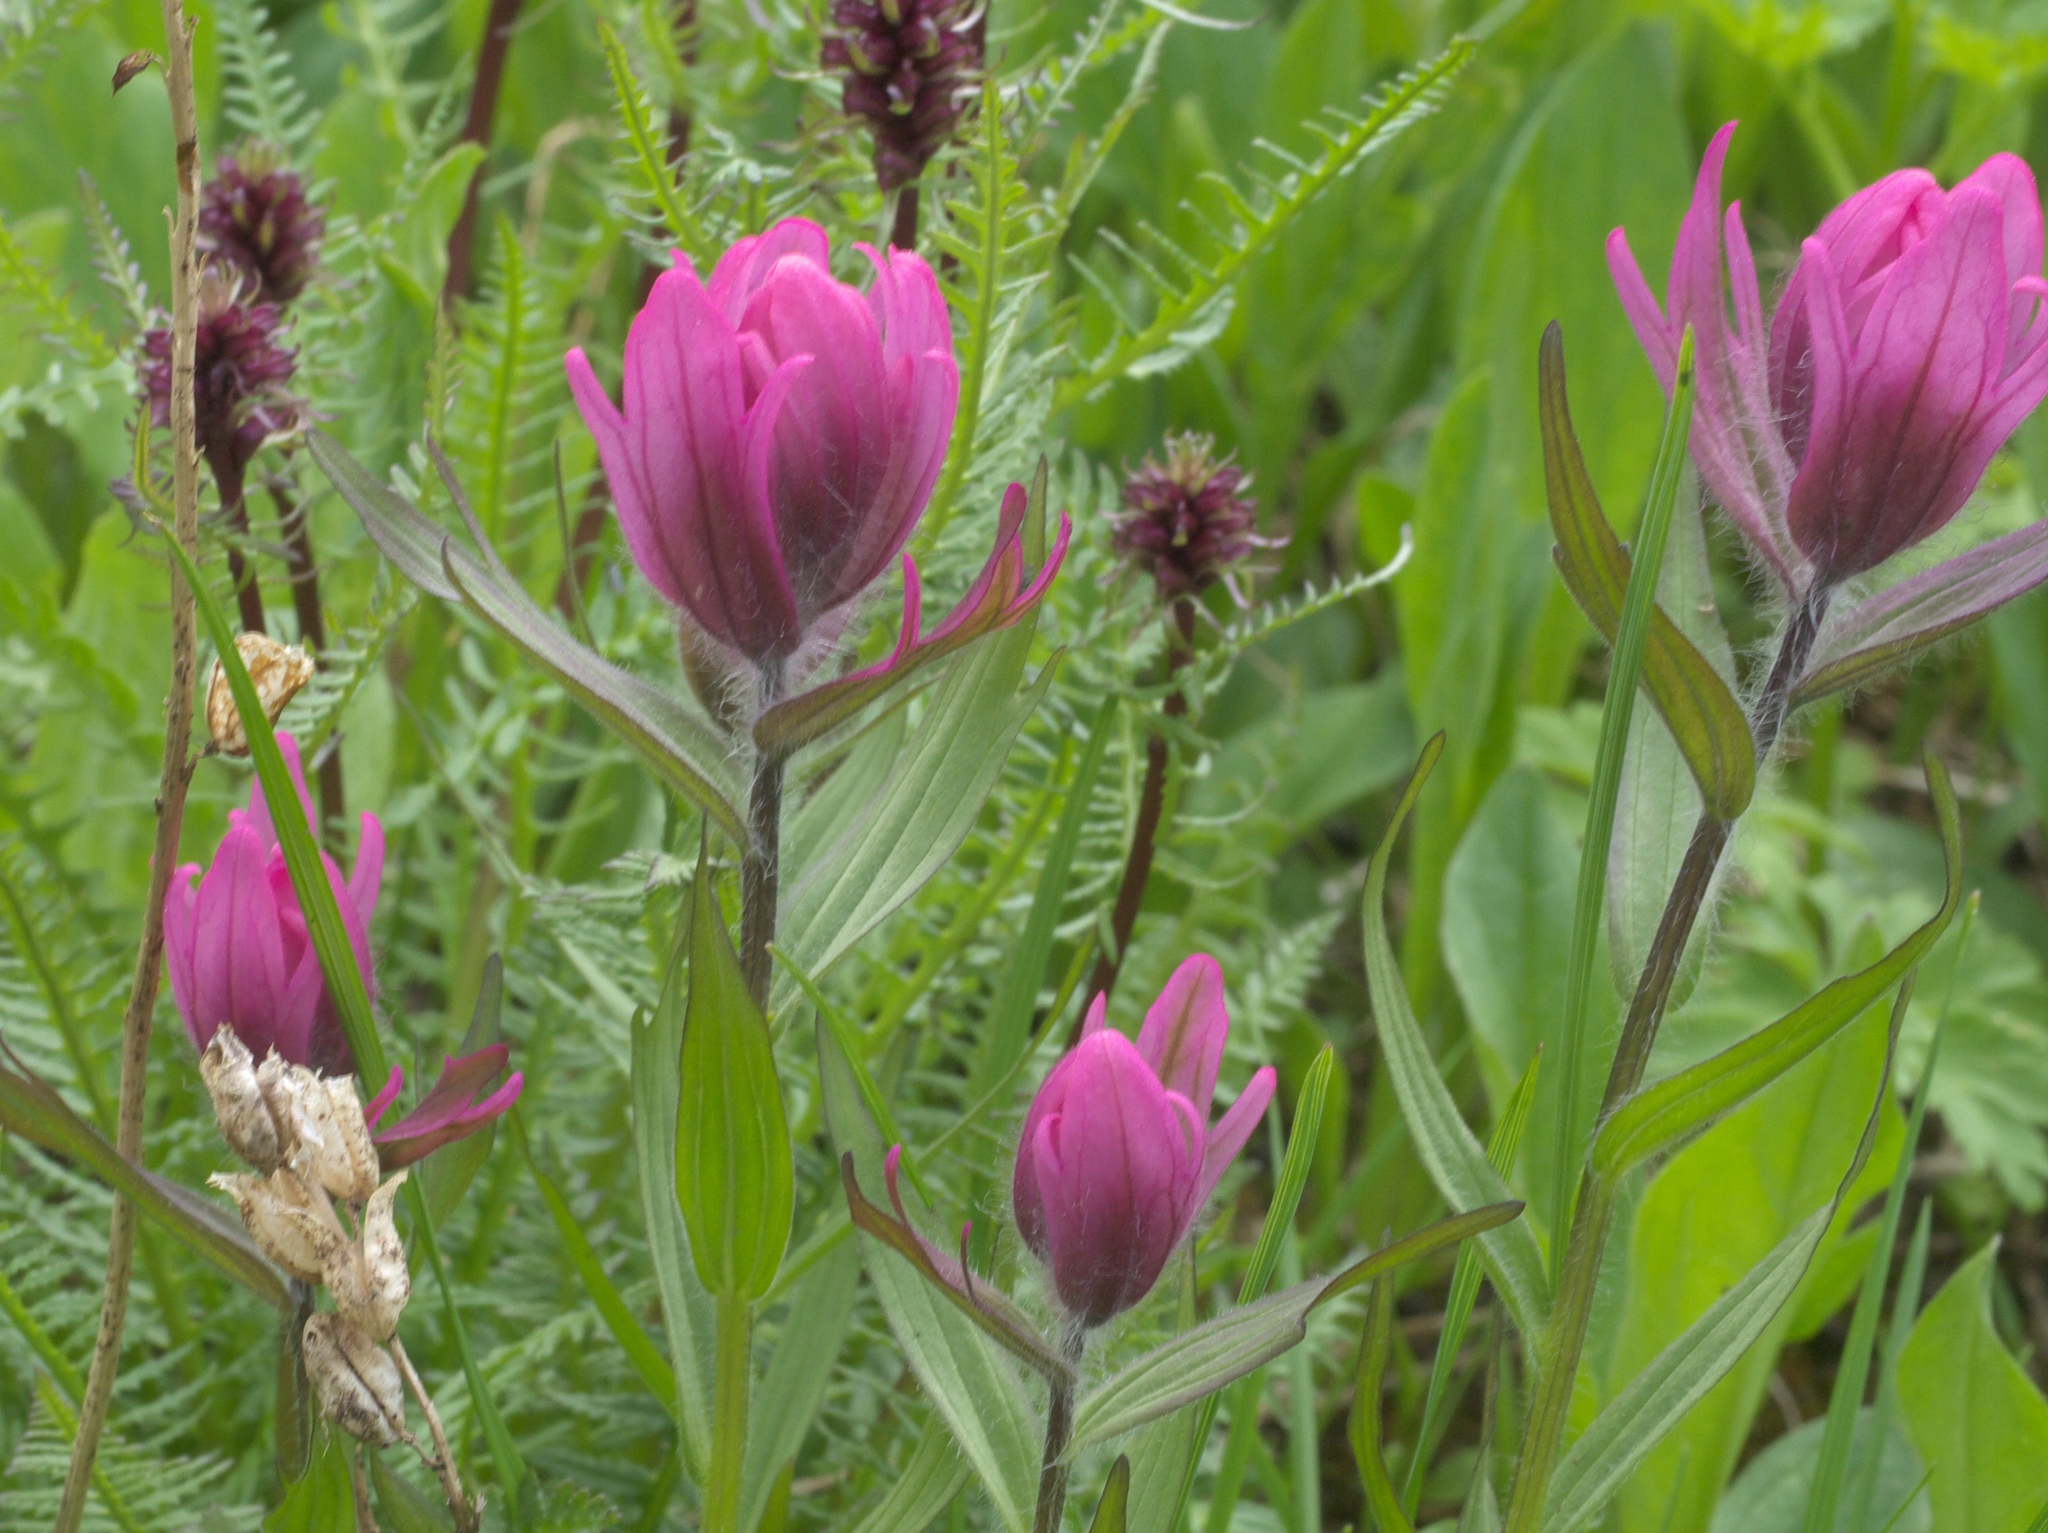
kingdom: Plantae
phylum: Tracheophyta
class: Magnoliopsida
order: Lamiales
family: Orobanchaceae
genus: Castilleja
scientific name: Castilleja rhexifolia
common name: Rocky mountain paintbrush
